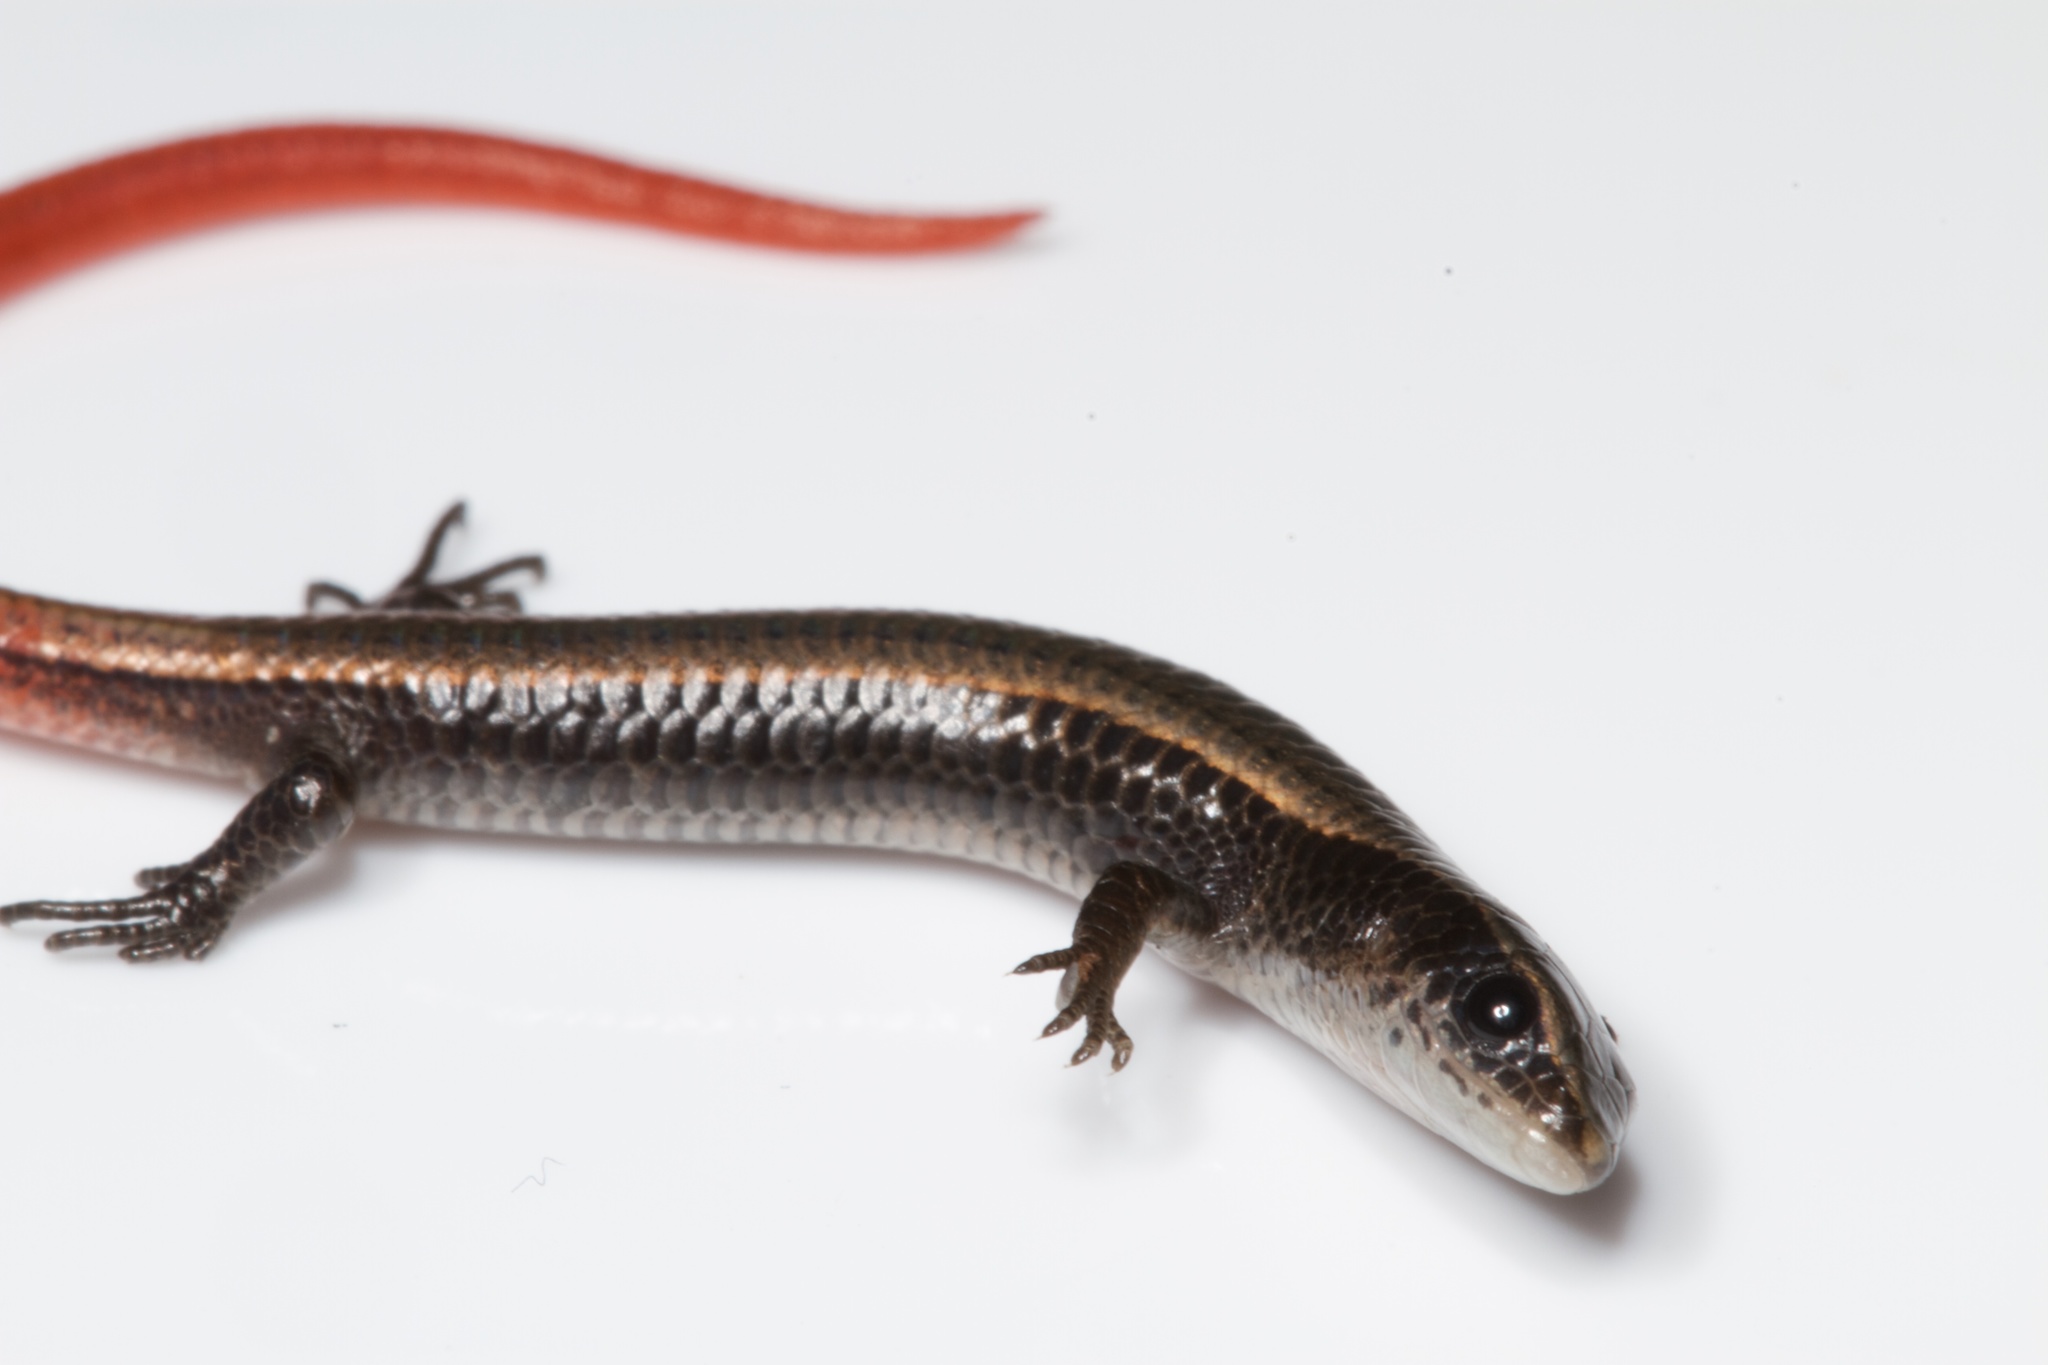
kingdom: Animalia
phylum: Chordata
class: Squamata
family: Gymnophthalmidae
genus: Gymnophthalmus
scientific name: Gymnophthalmus speciosus
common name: Golden spectacled tegu
